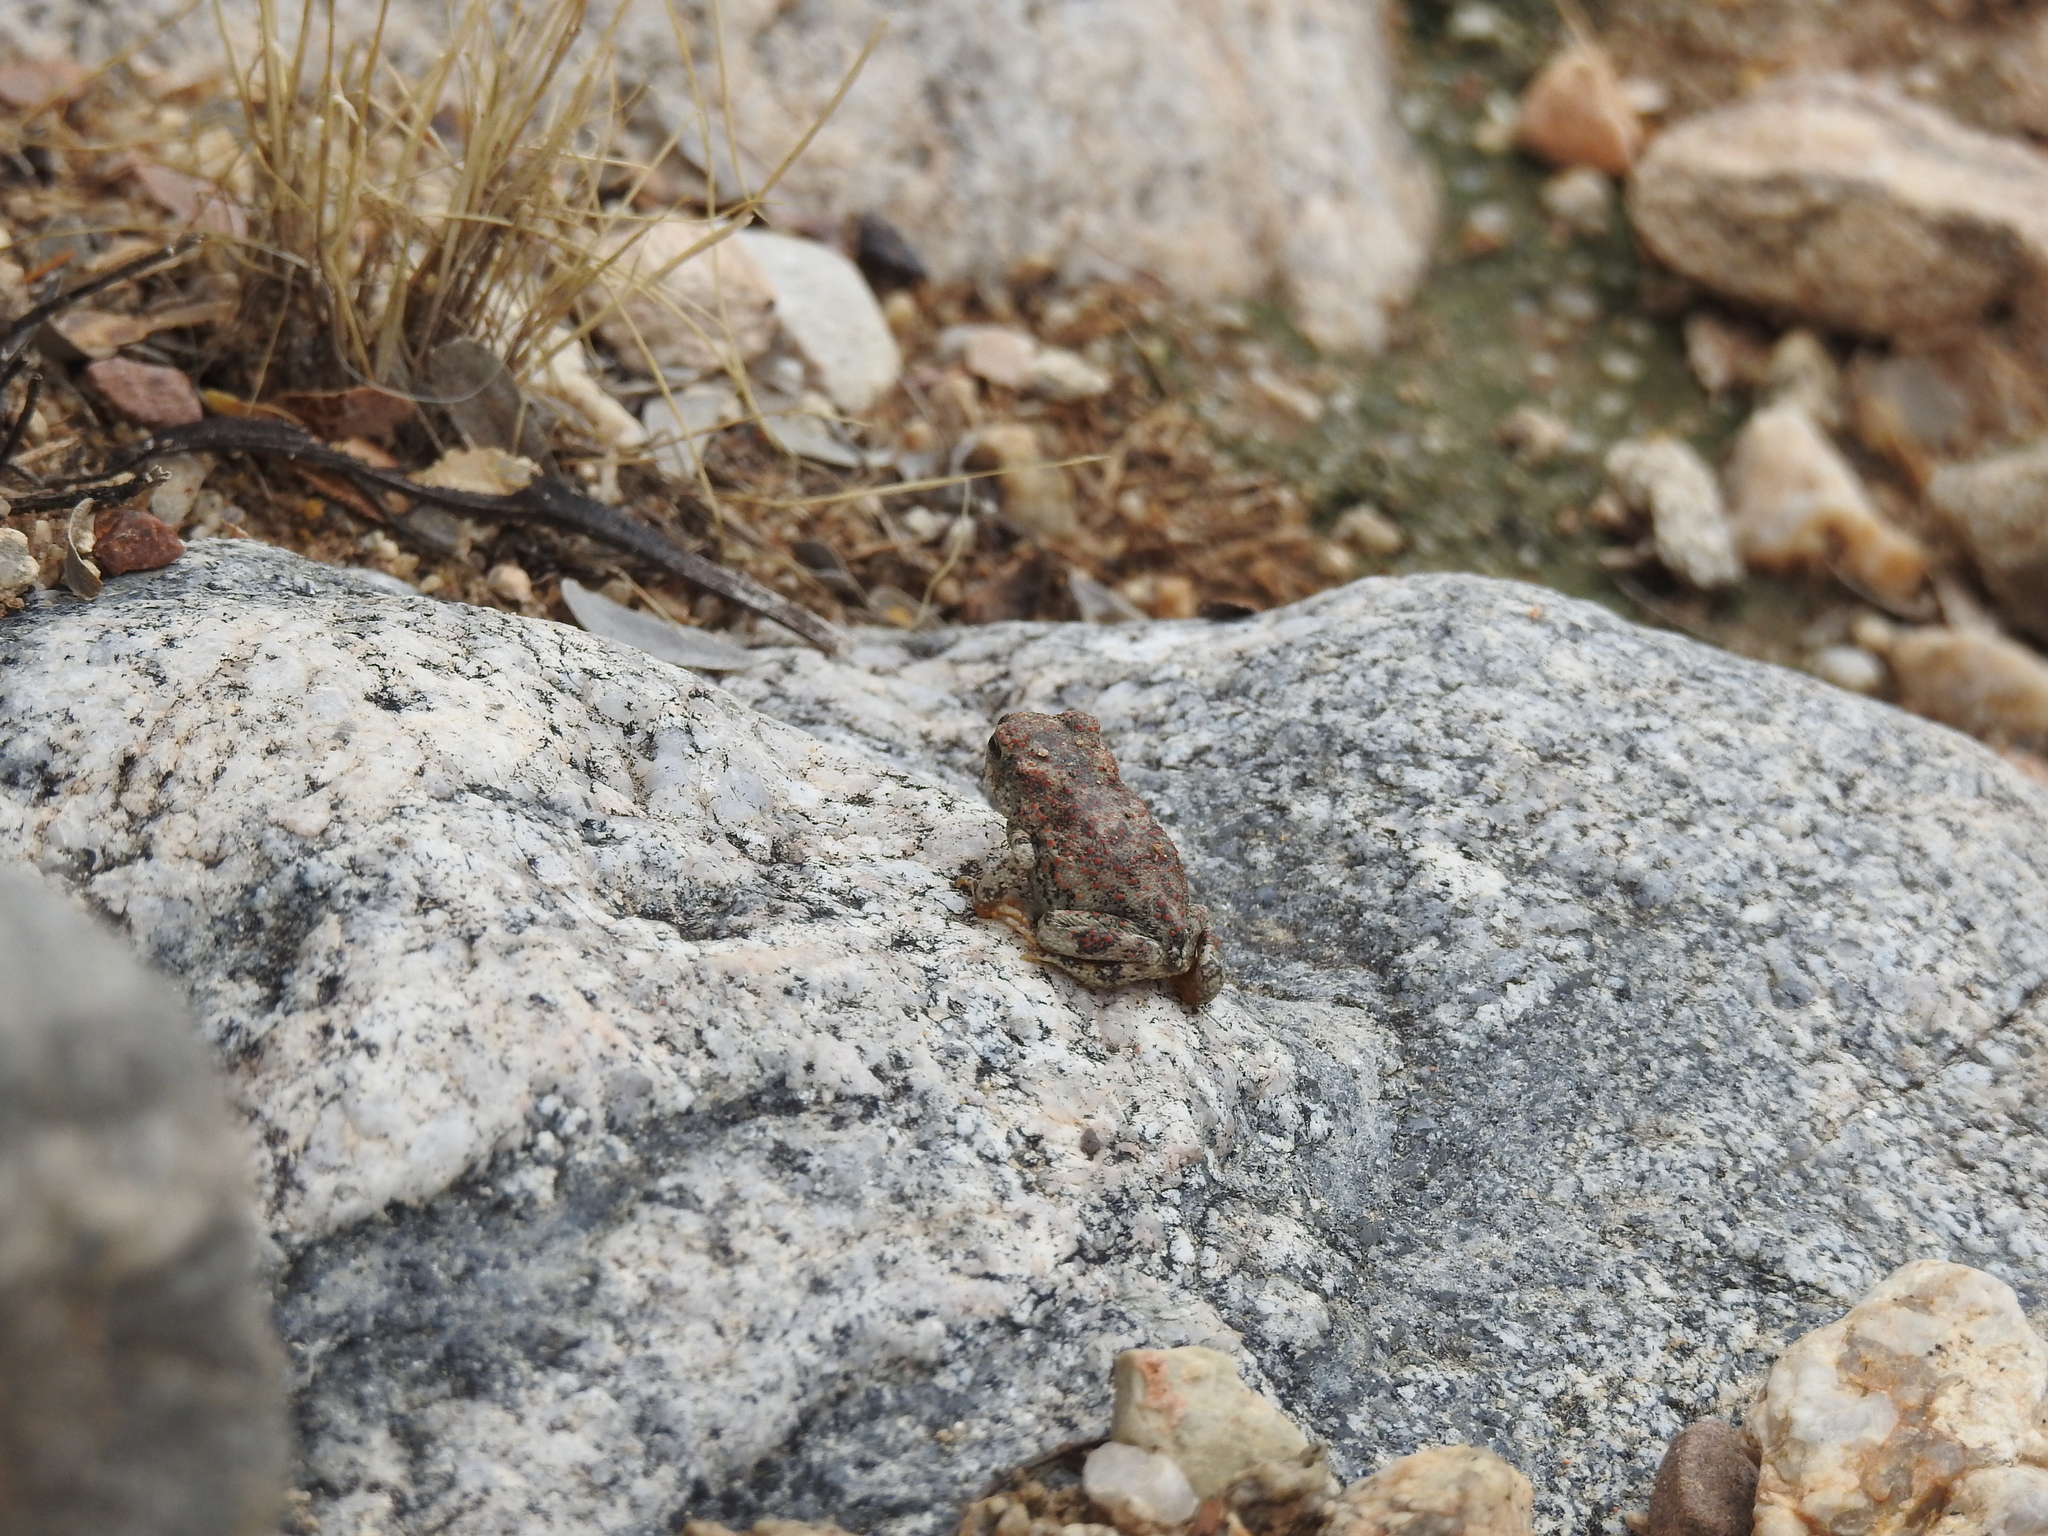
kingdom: Animalia
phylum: Chordata
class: Amphibia
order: Anura
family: Bufonidae
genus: Anaxyrus
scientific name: Anaxyrus punctatus
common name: Red-spotted toad
